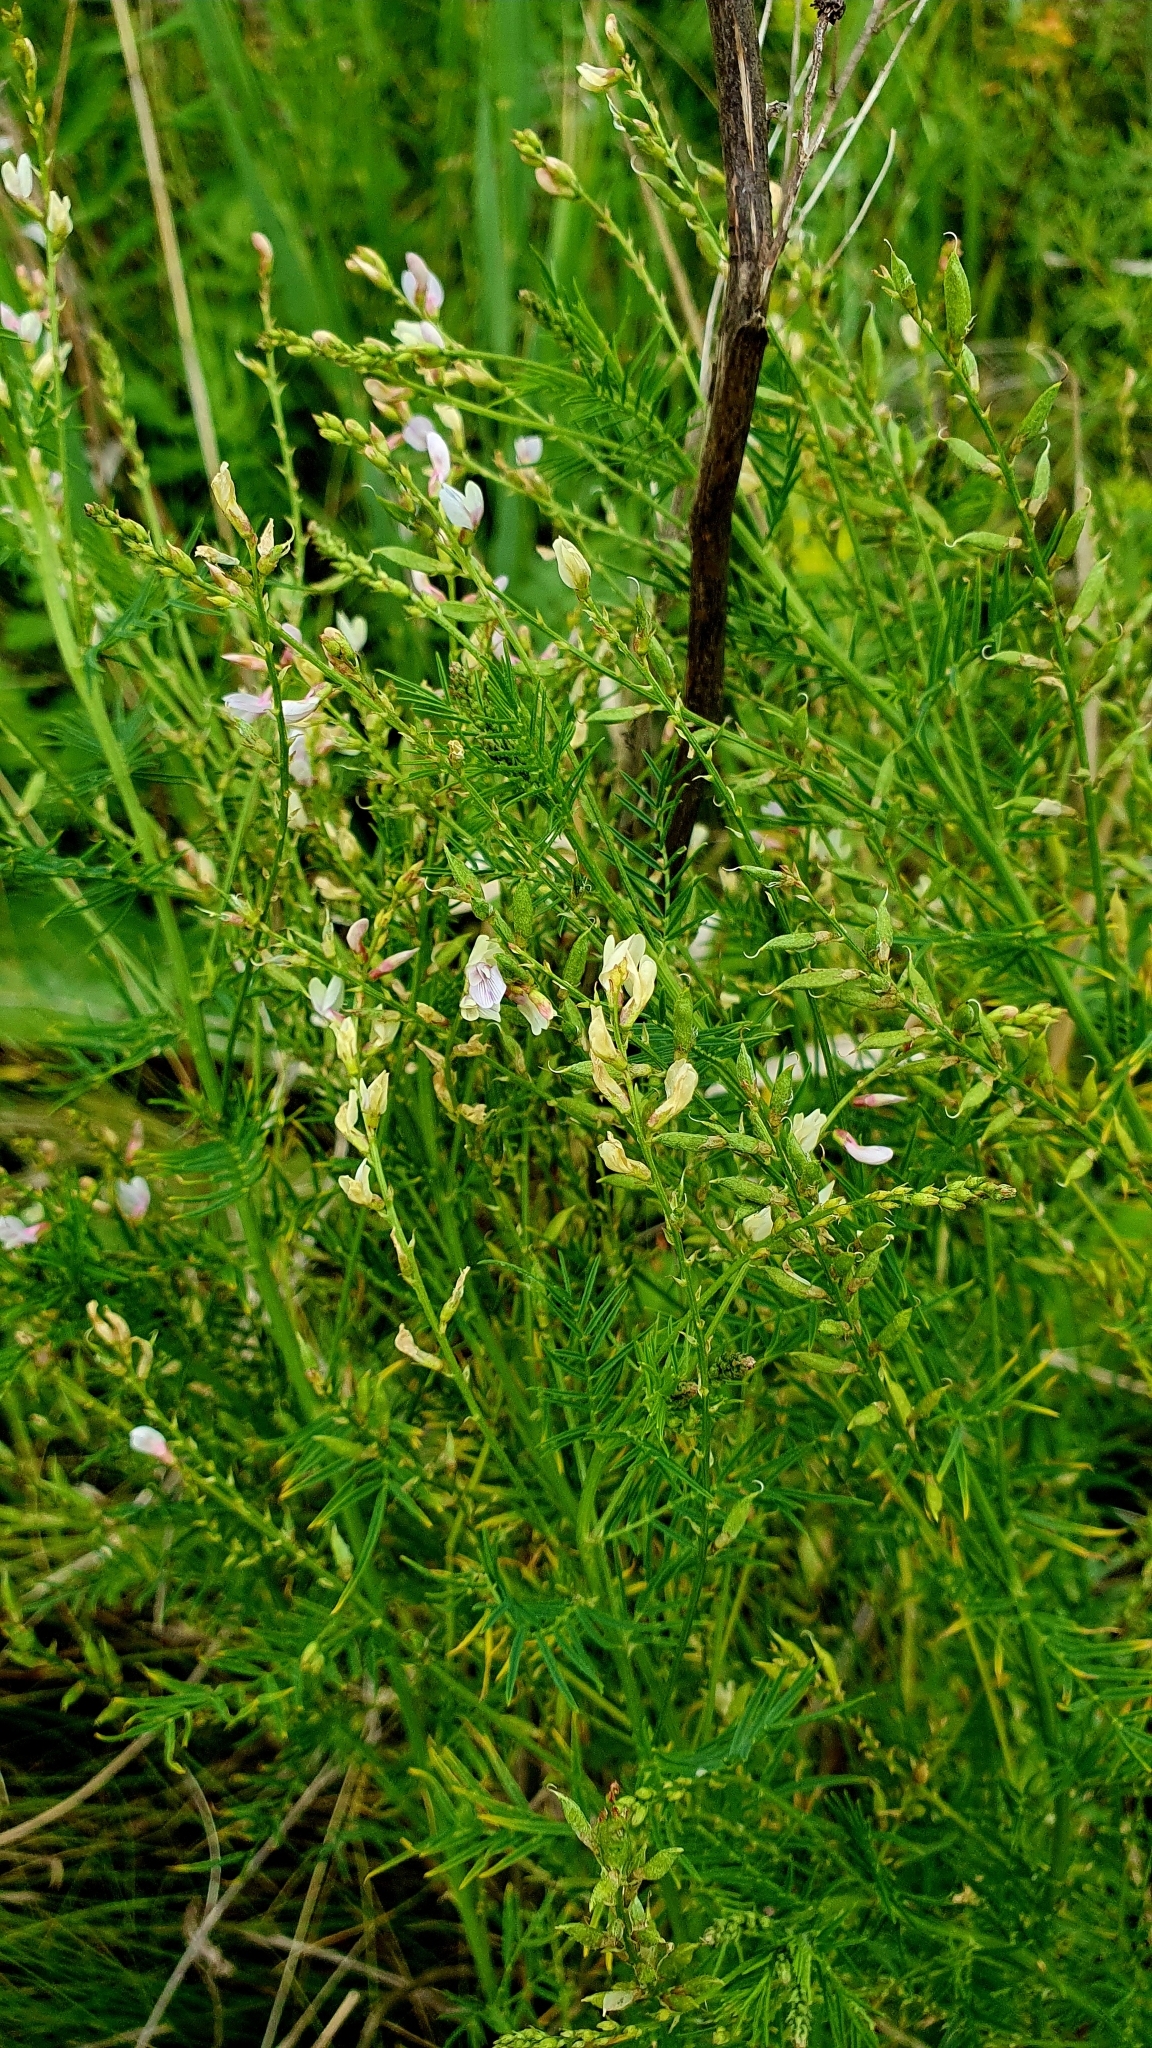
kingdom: Plantae
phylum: Tracheophyta
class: Magnoliopsida
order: Fabales
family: Fabaceae
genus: Astragalus
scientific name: Astragalus sulcatus
